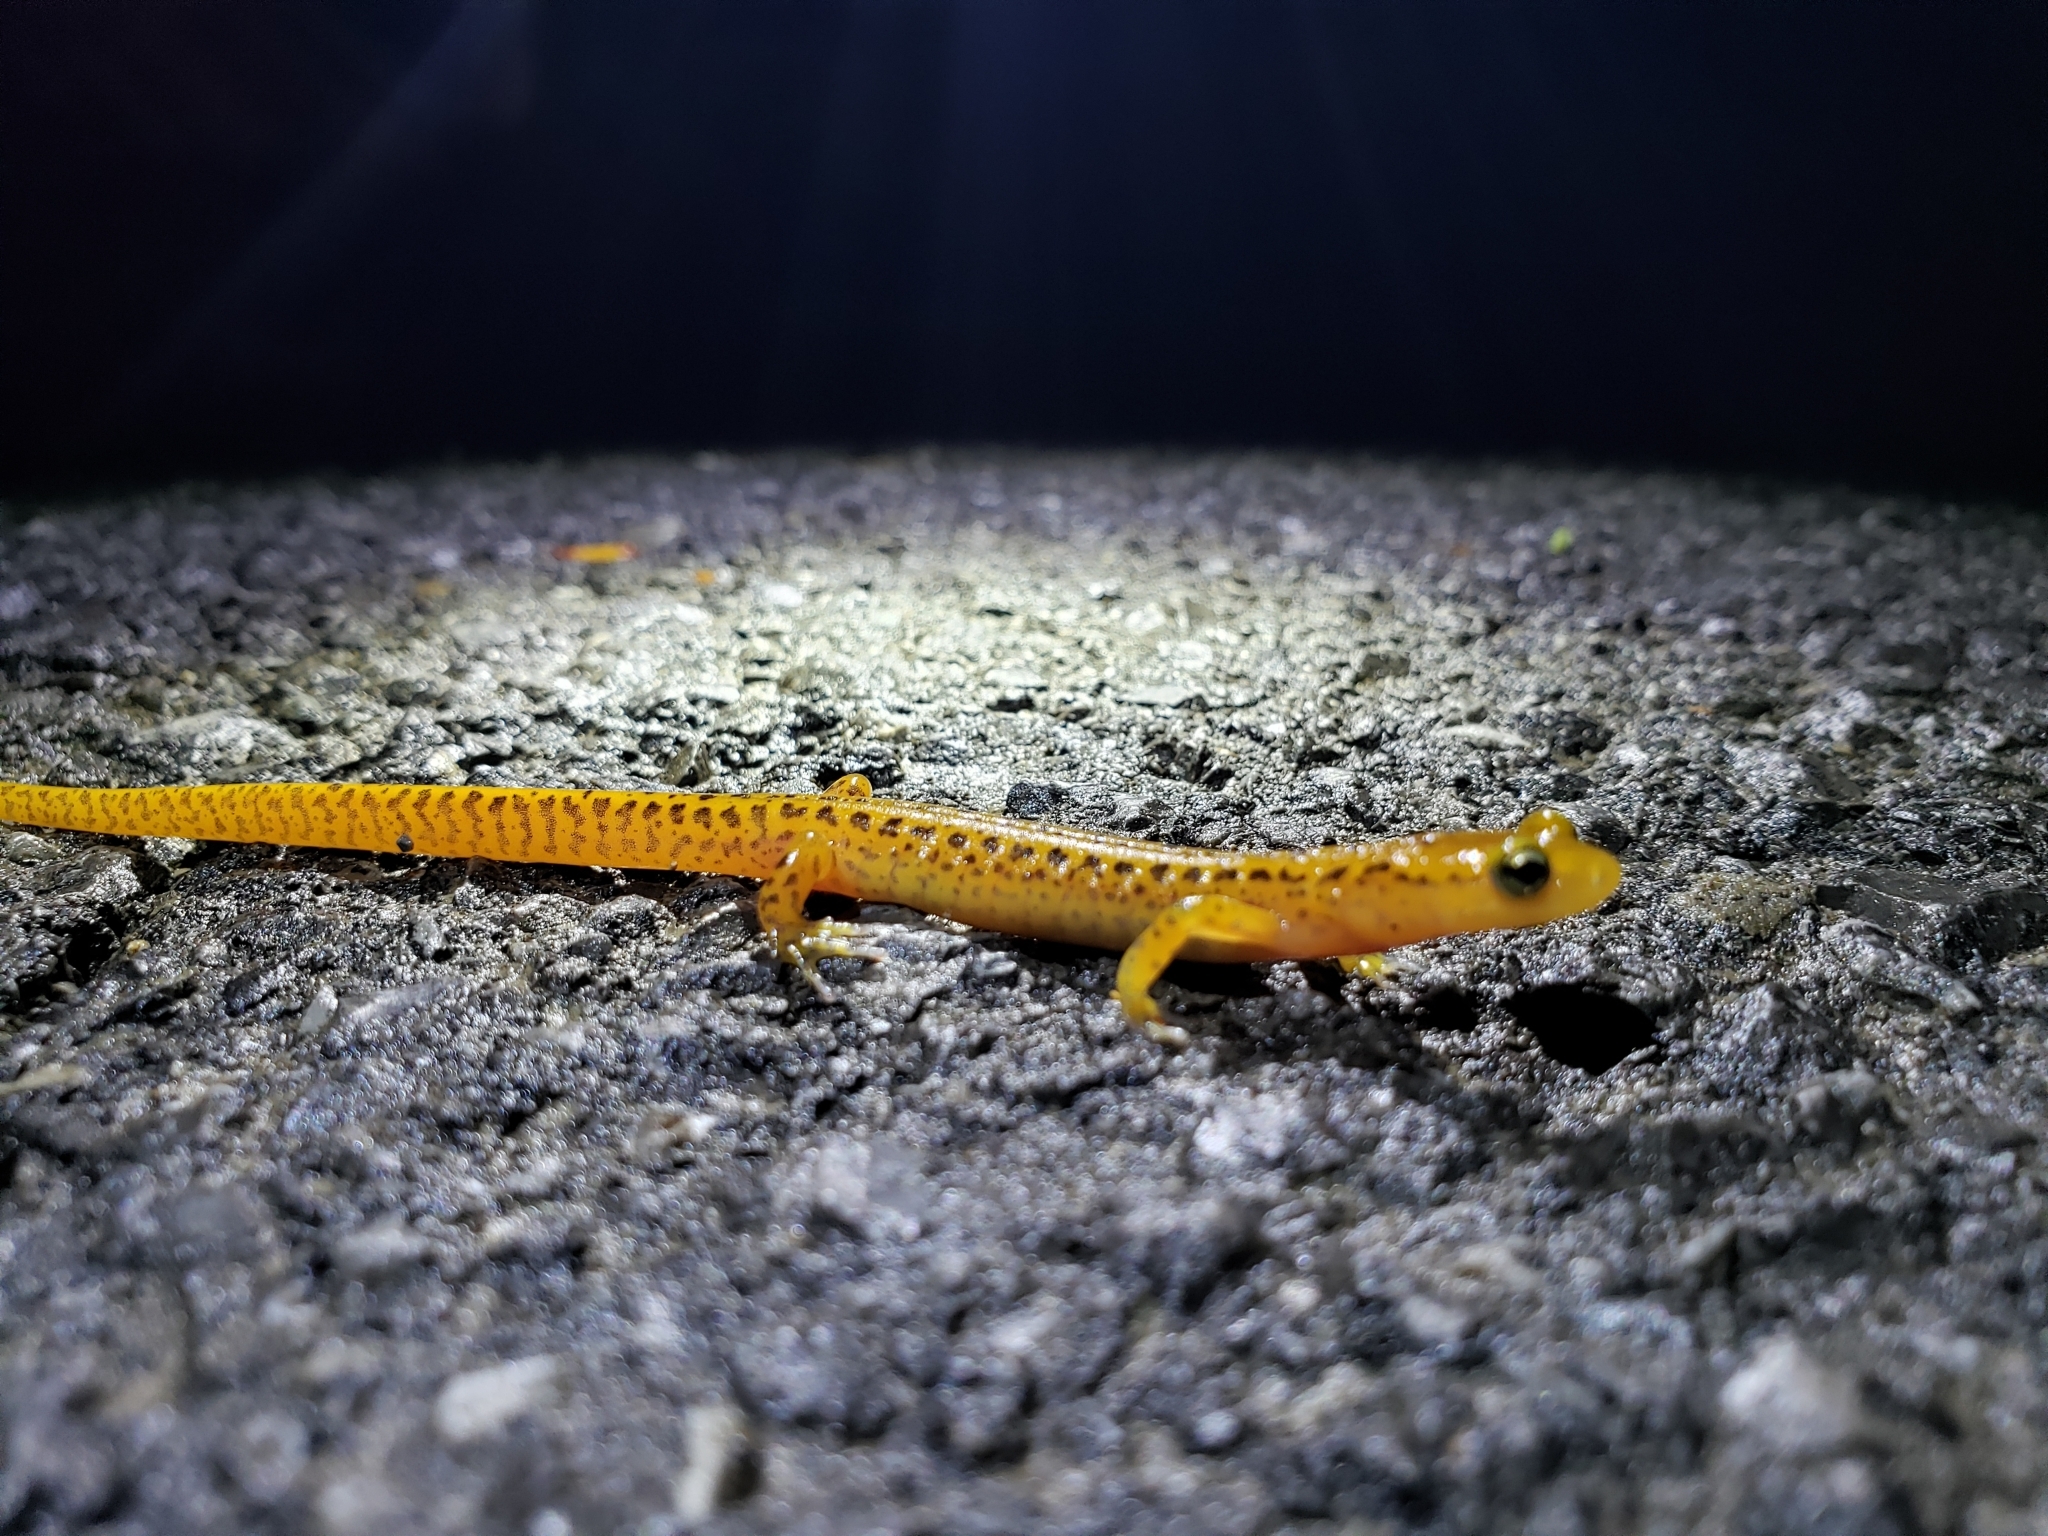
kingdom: Animalia
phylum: Chordata
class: Amphibia
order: Caudata
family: Plethodontidae
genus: Eurycea
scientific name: Eurycea longicauda
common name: Long-tailed salamander
